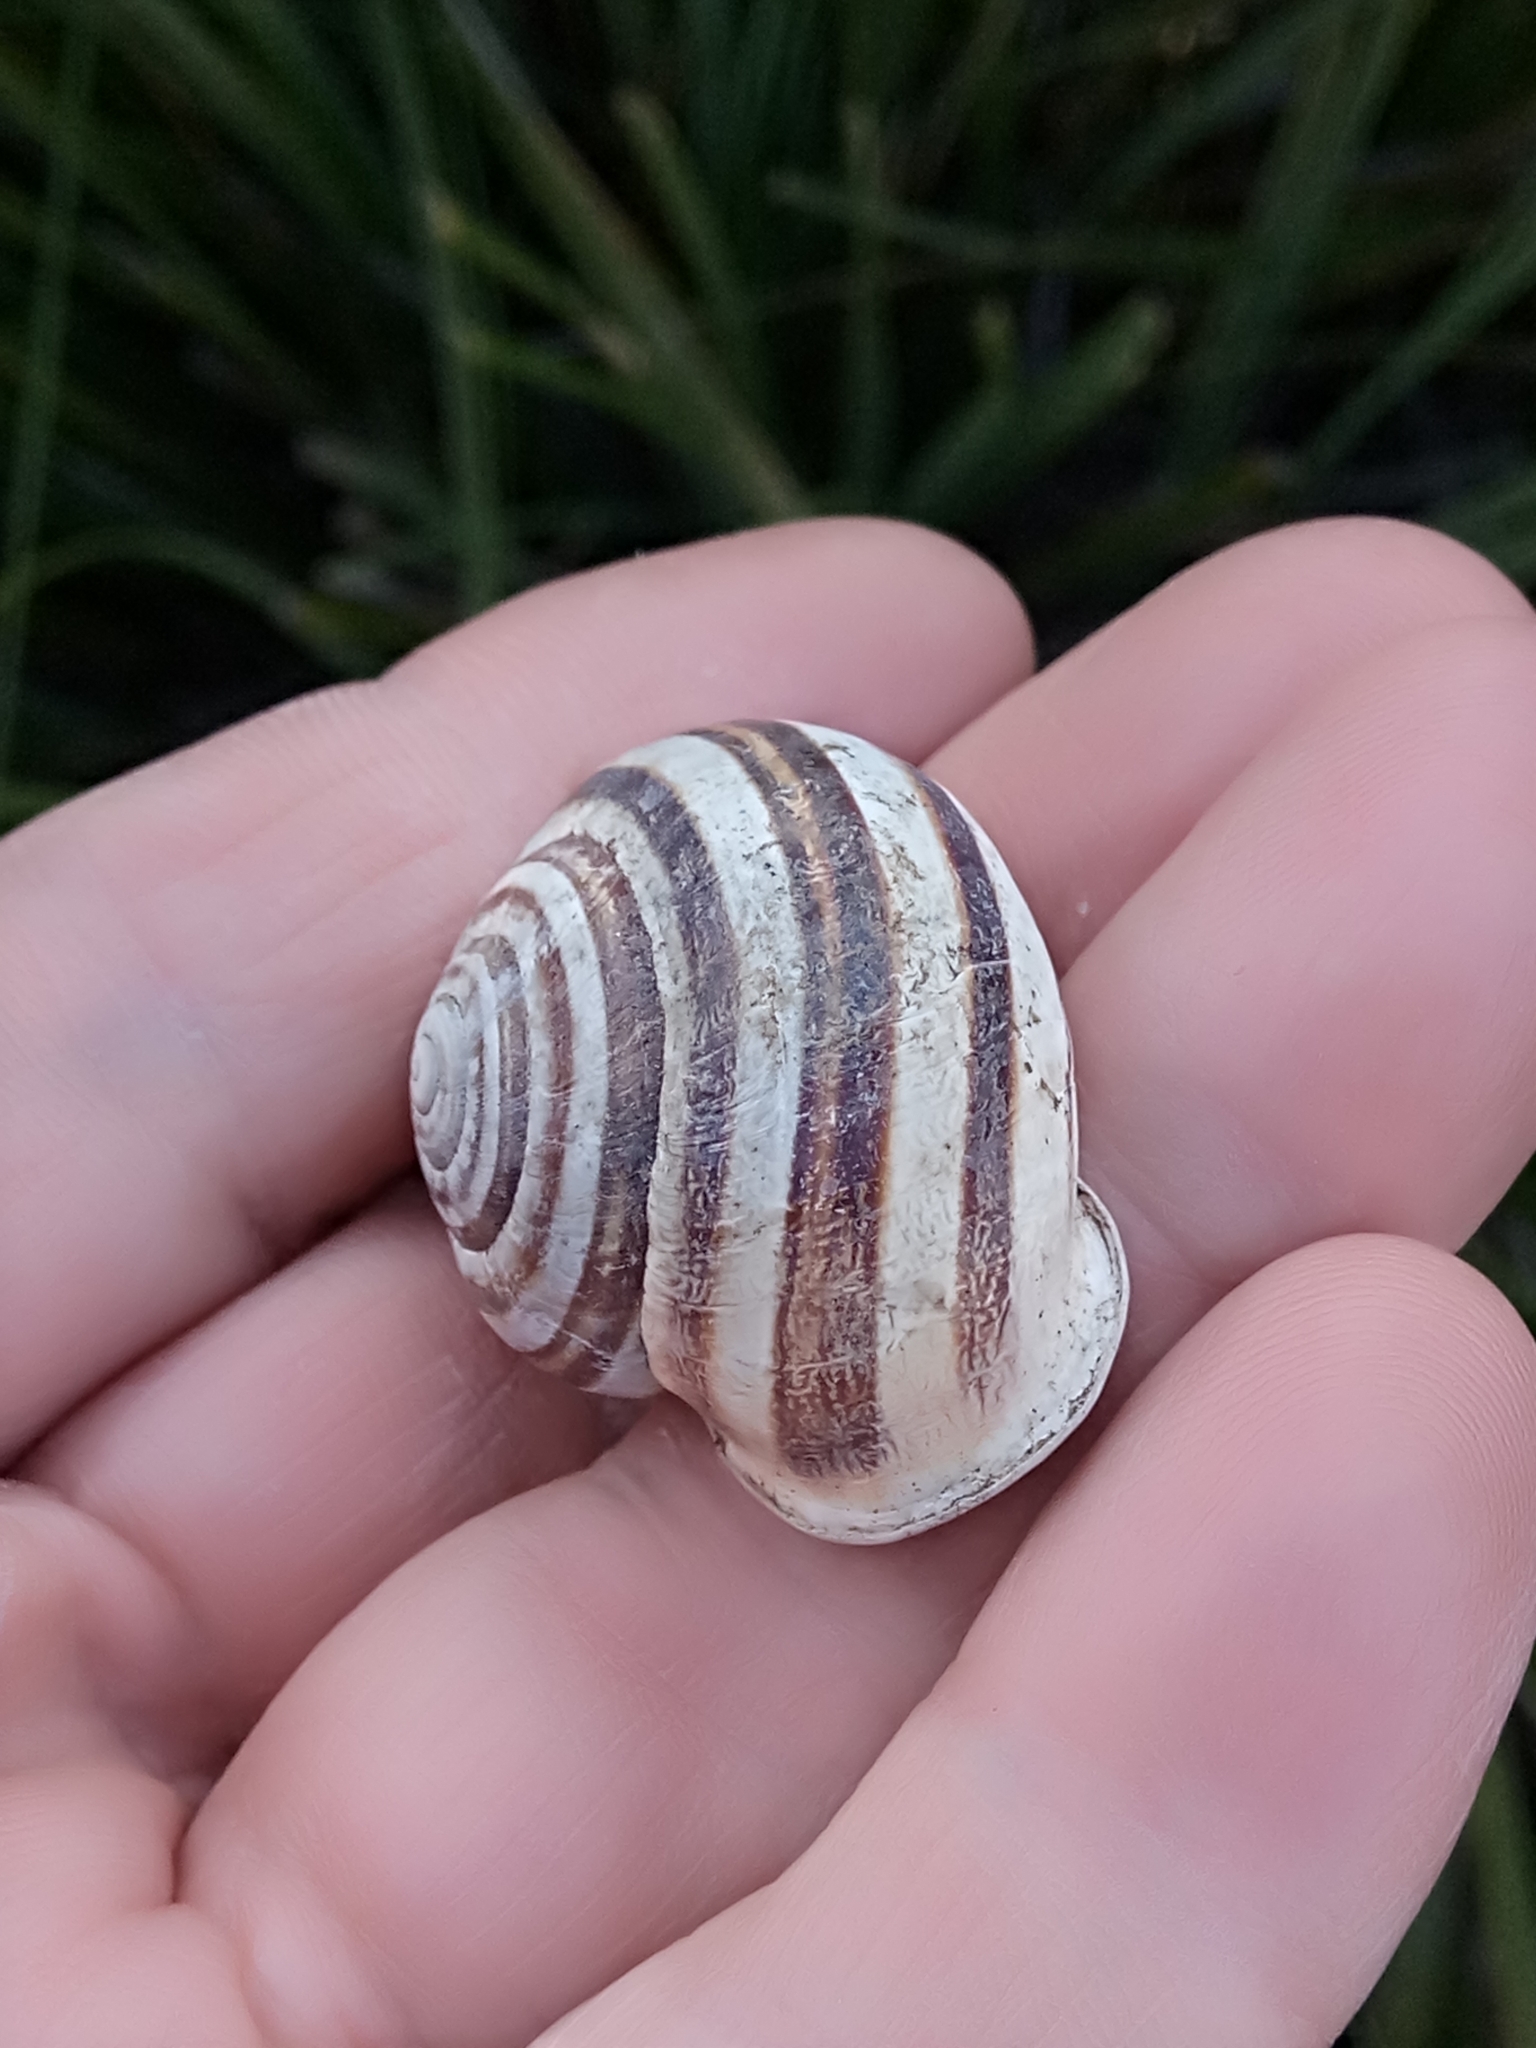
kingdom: Animalia
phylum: Mollusca
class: Gastropoda
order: Stylommatophora
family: Helicidae
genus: Eobania
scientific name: Eobania vermiculata
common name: Chocolateband snail
